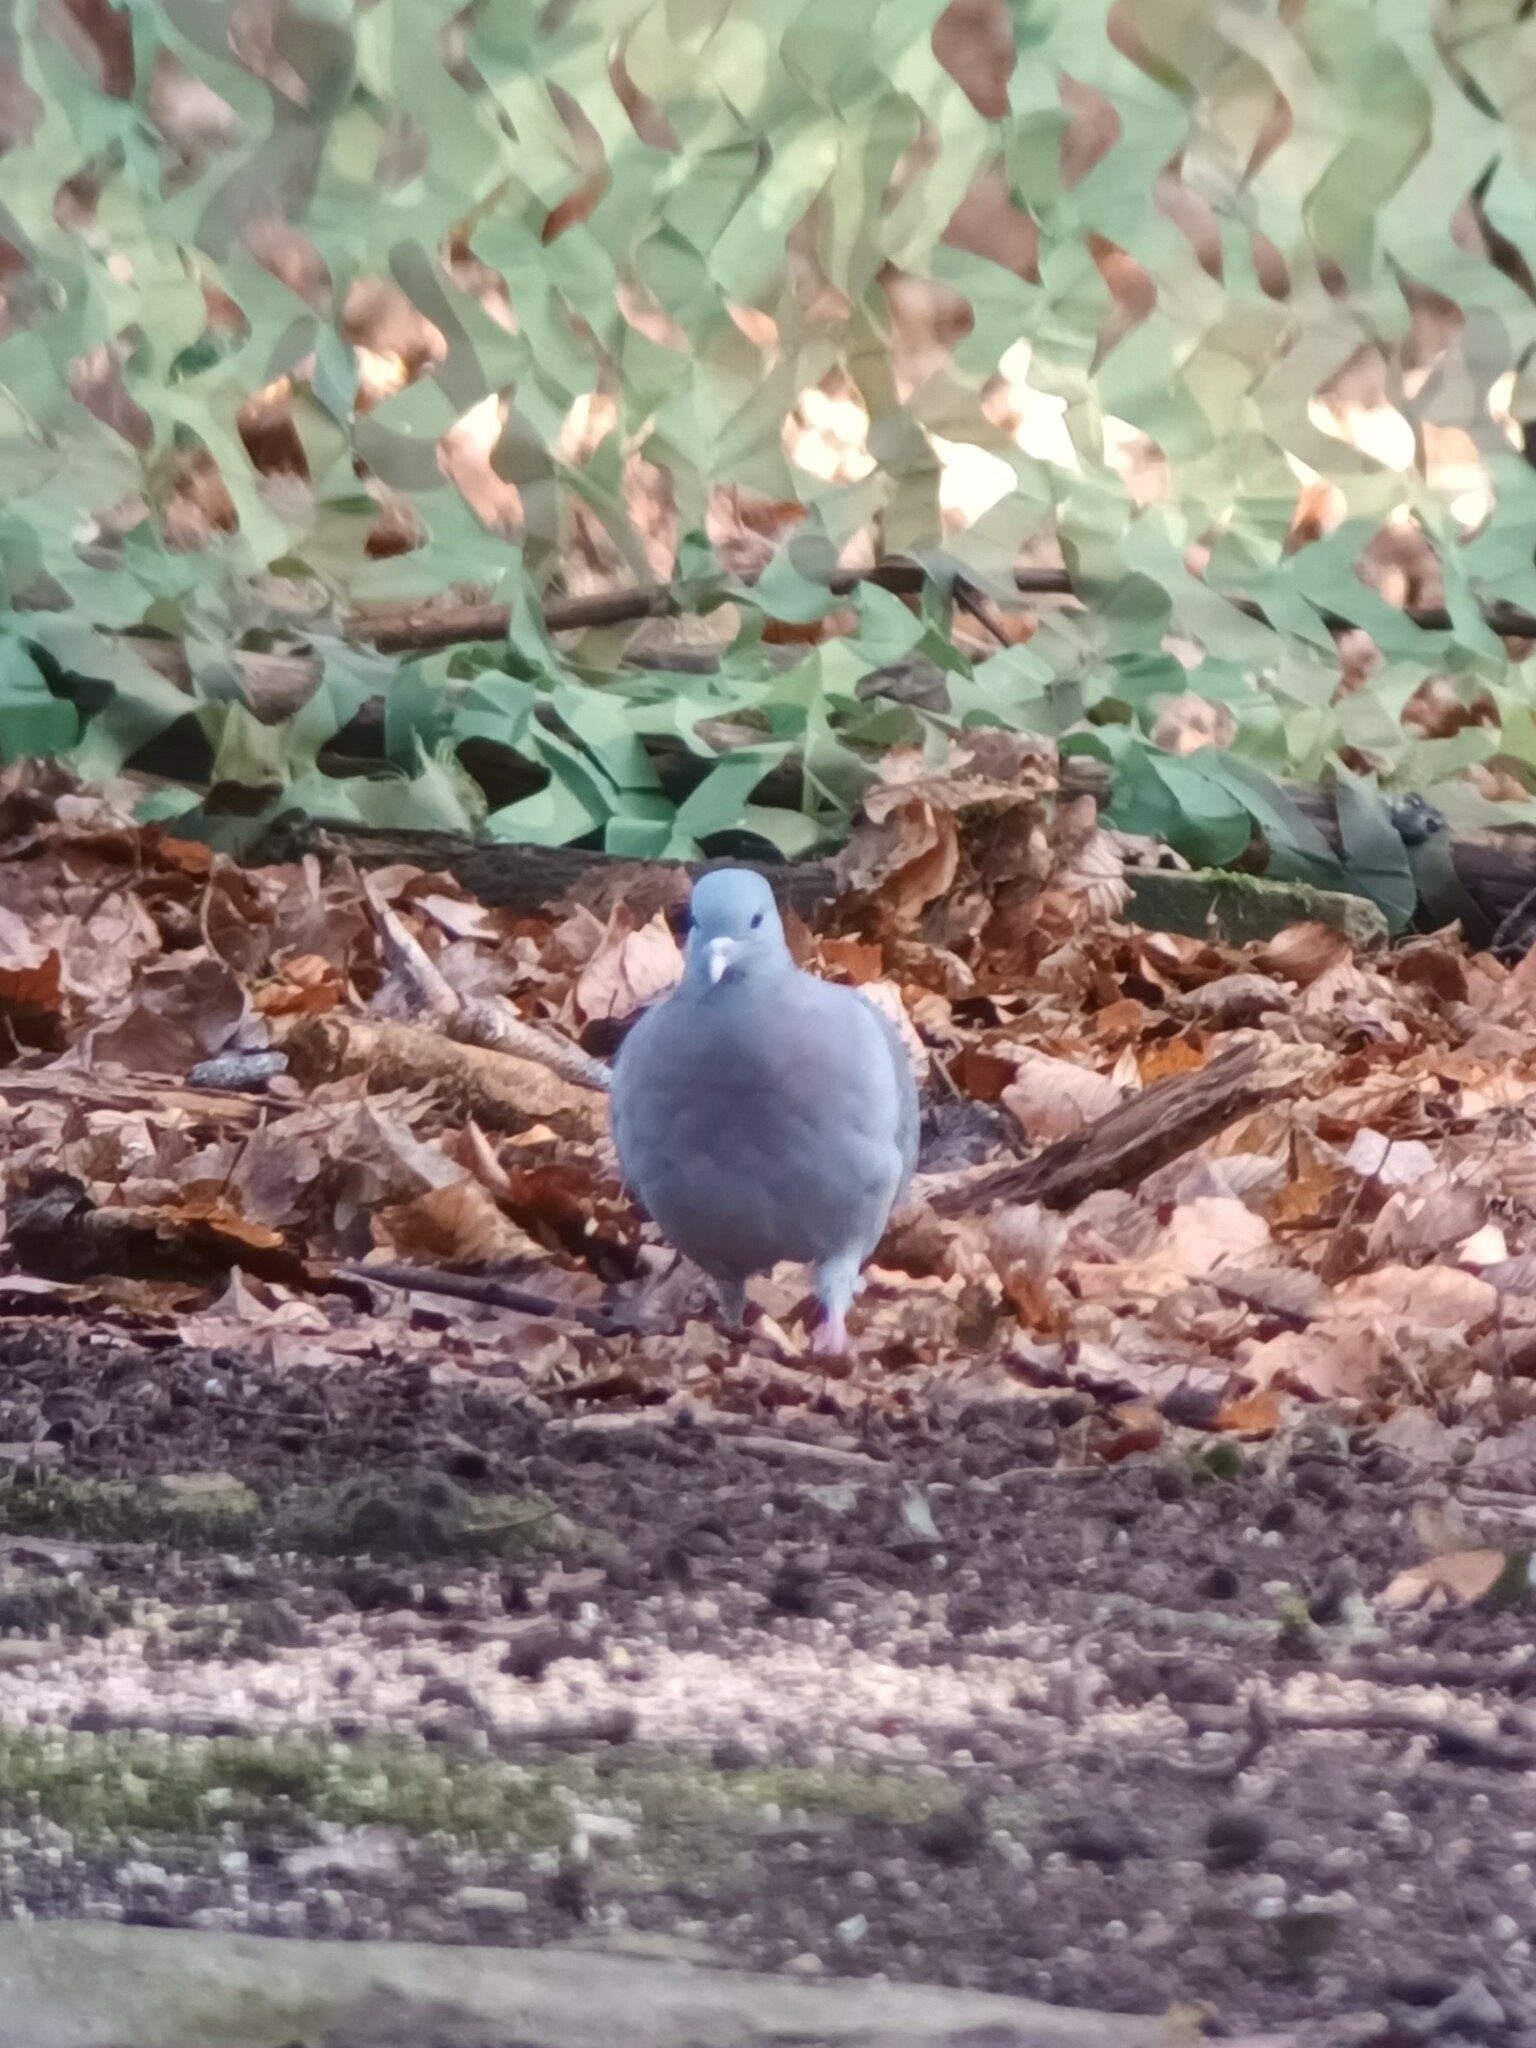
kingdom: Animalia
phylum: Chordata
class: Aves
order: Columbiformes
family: Columbidae
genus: Columba
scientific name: Columba oenas
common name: Stock dove
